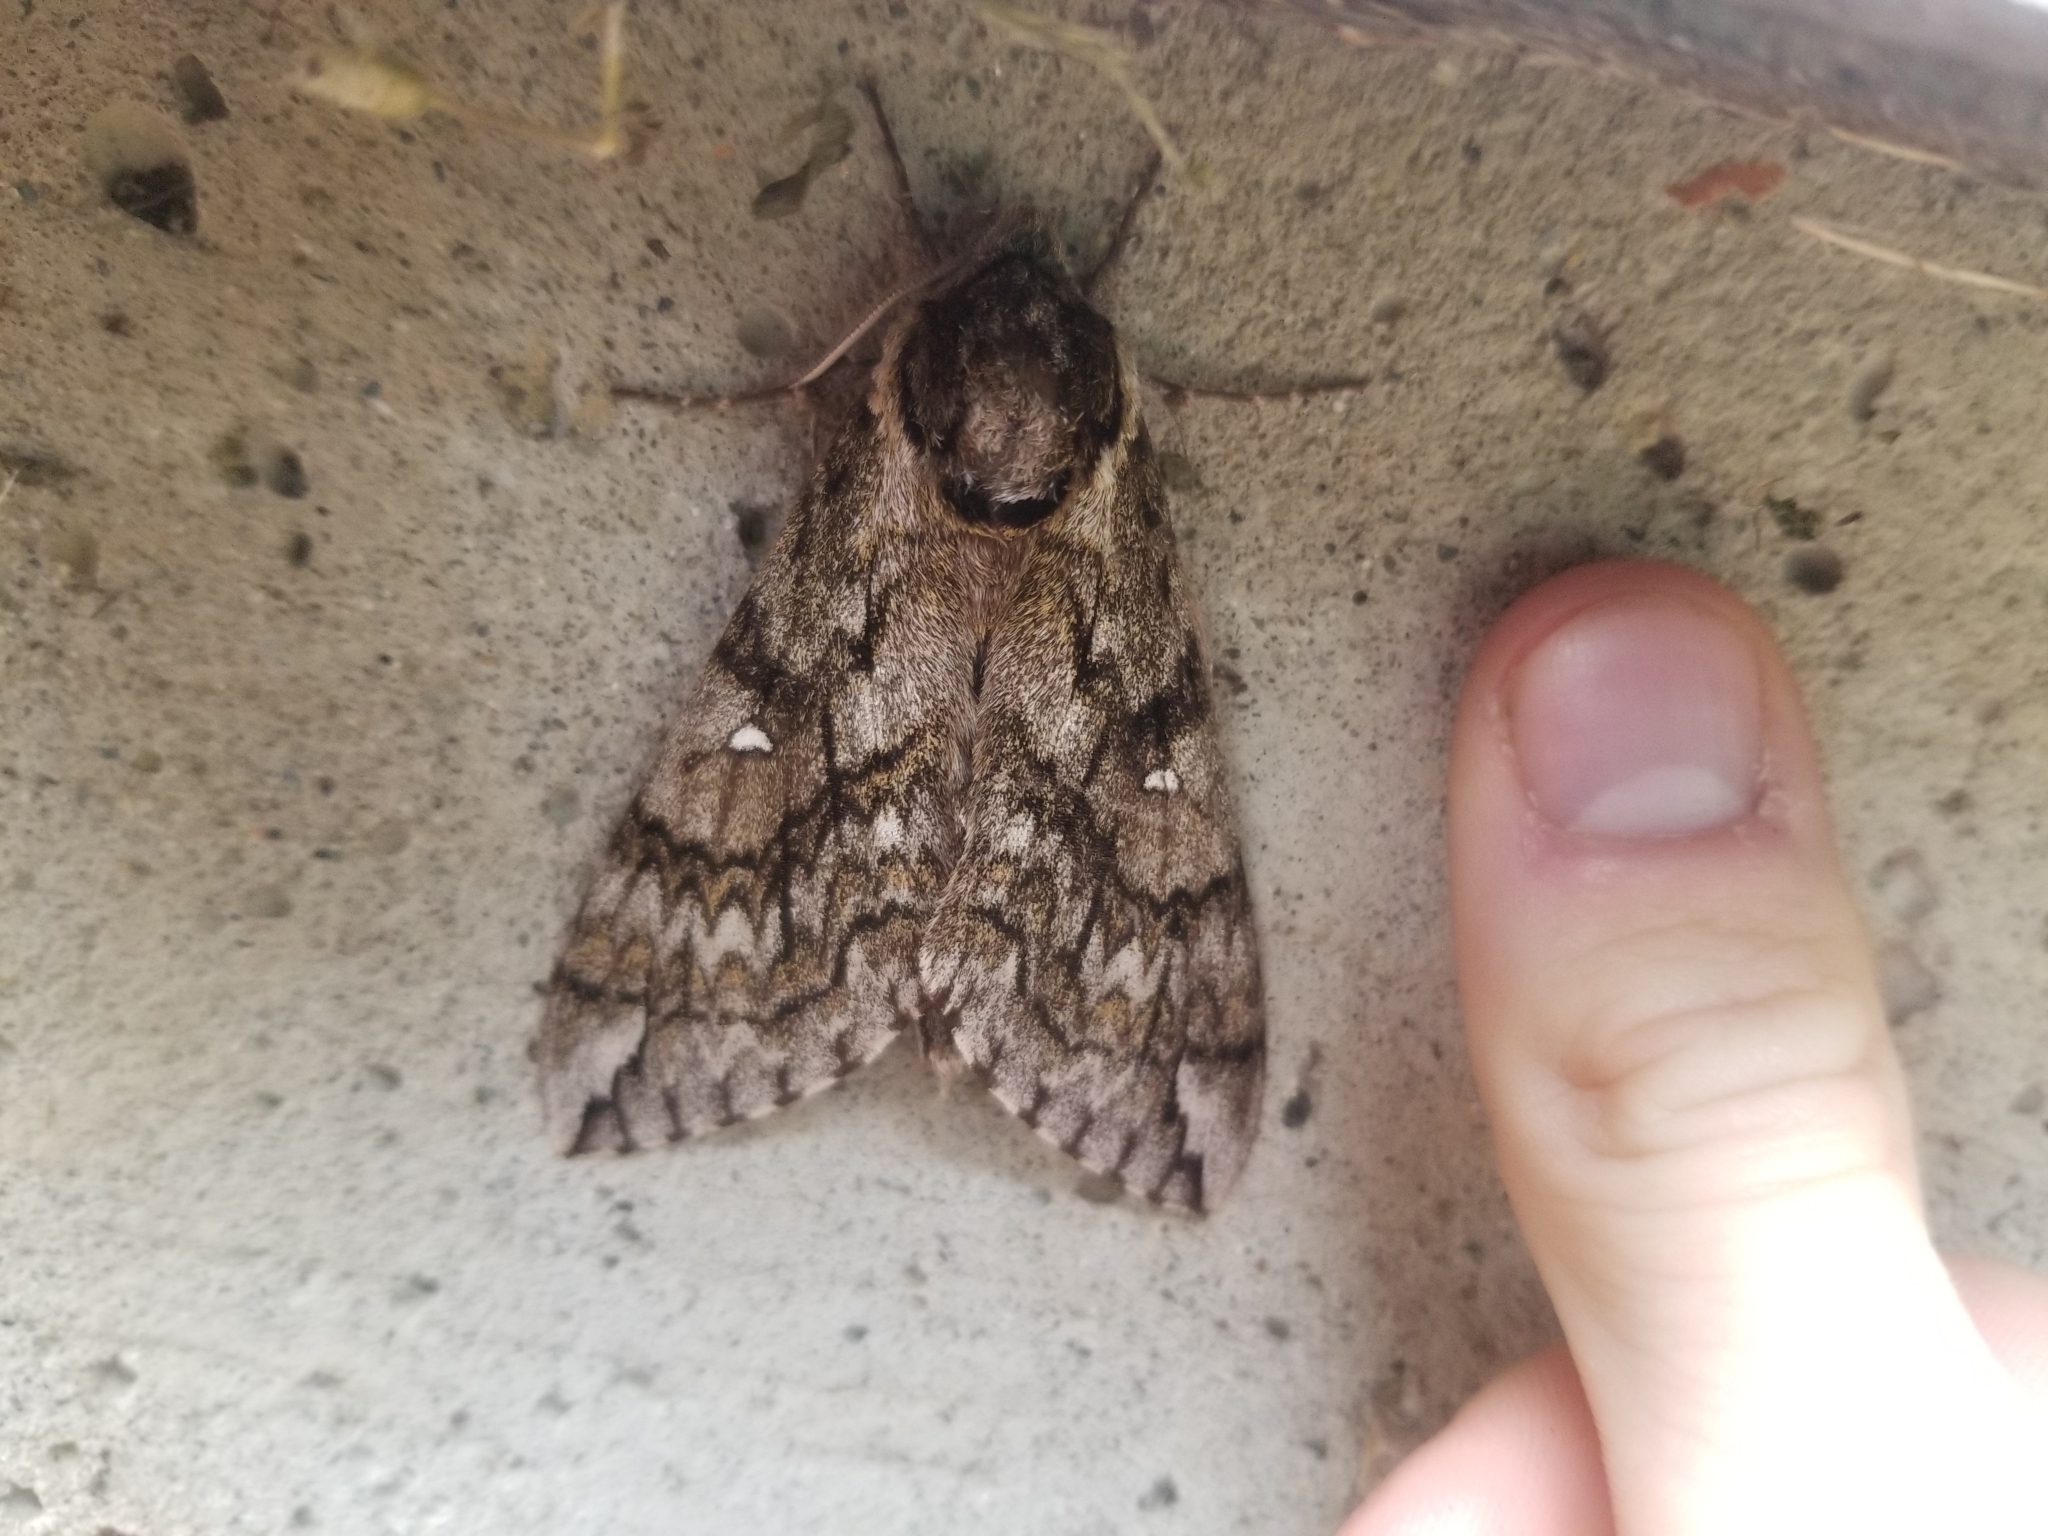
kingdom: Animalia
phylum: Arthropoda
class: Insecta
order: Lepidoptera
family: Sphingidae
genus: Ceratomia
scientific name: Ceratomia undulosa
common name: Waved sphinx
